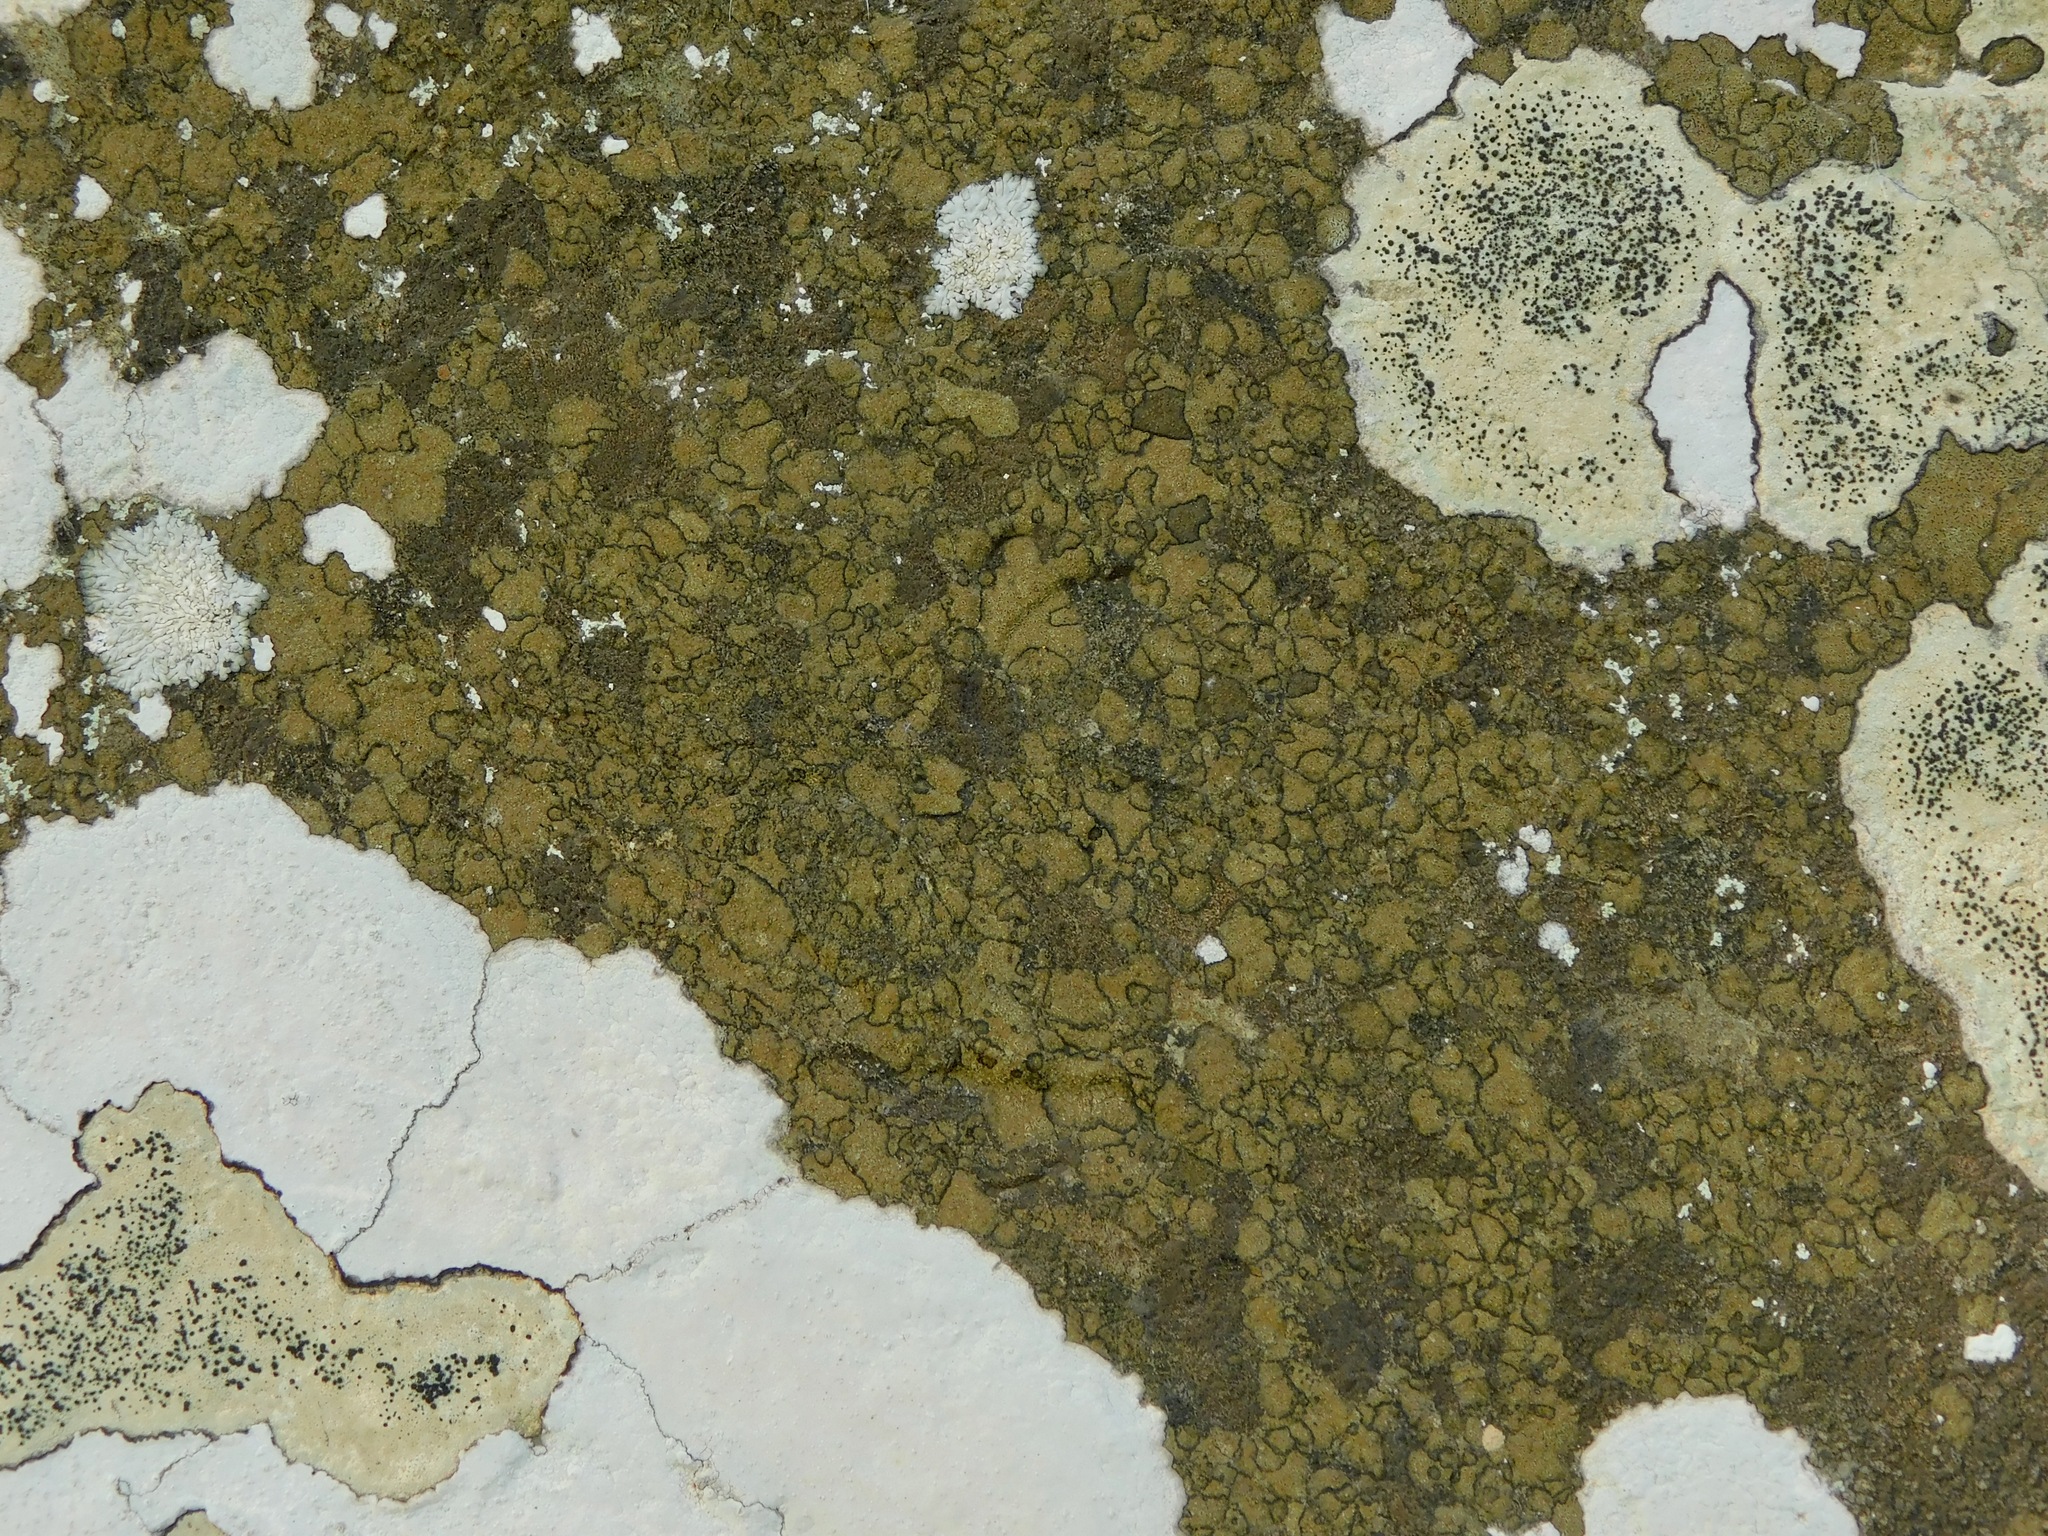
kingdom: Fungi
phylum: Ascomycota
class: Arthoniomycetes
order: Arthoniales
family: Roccellaceae
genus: Enterographa
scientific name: Enterographa hutchinsiae
